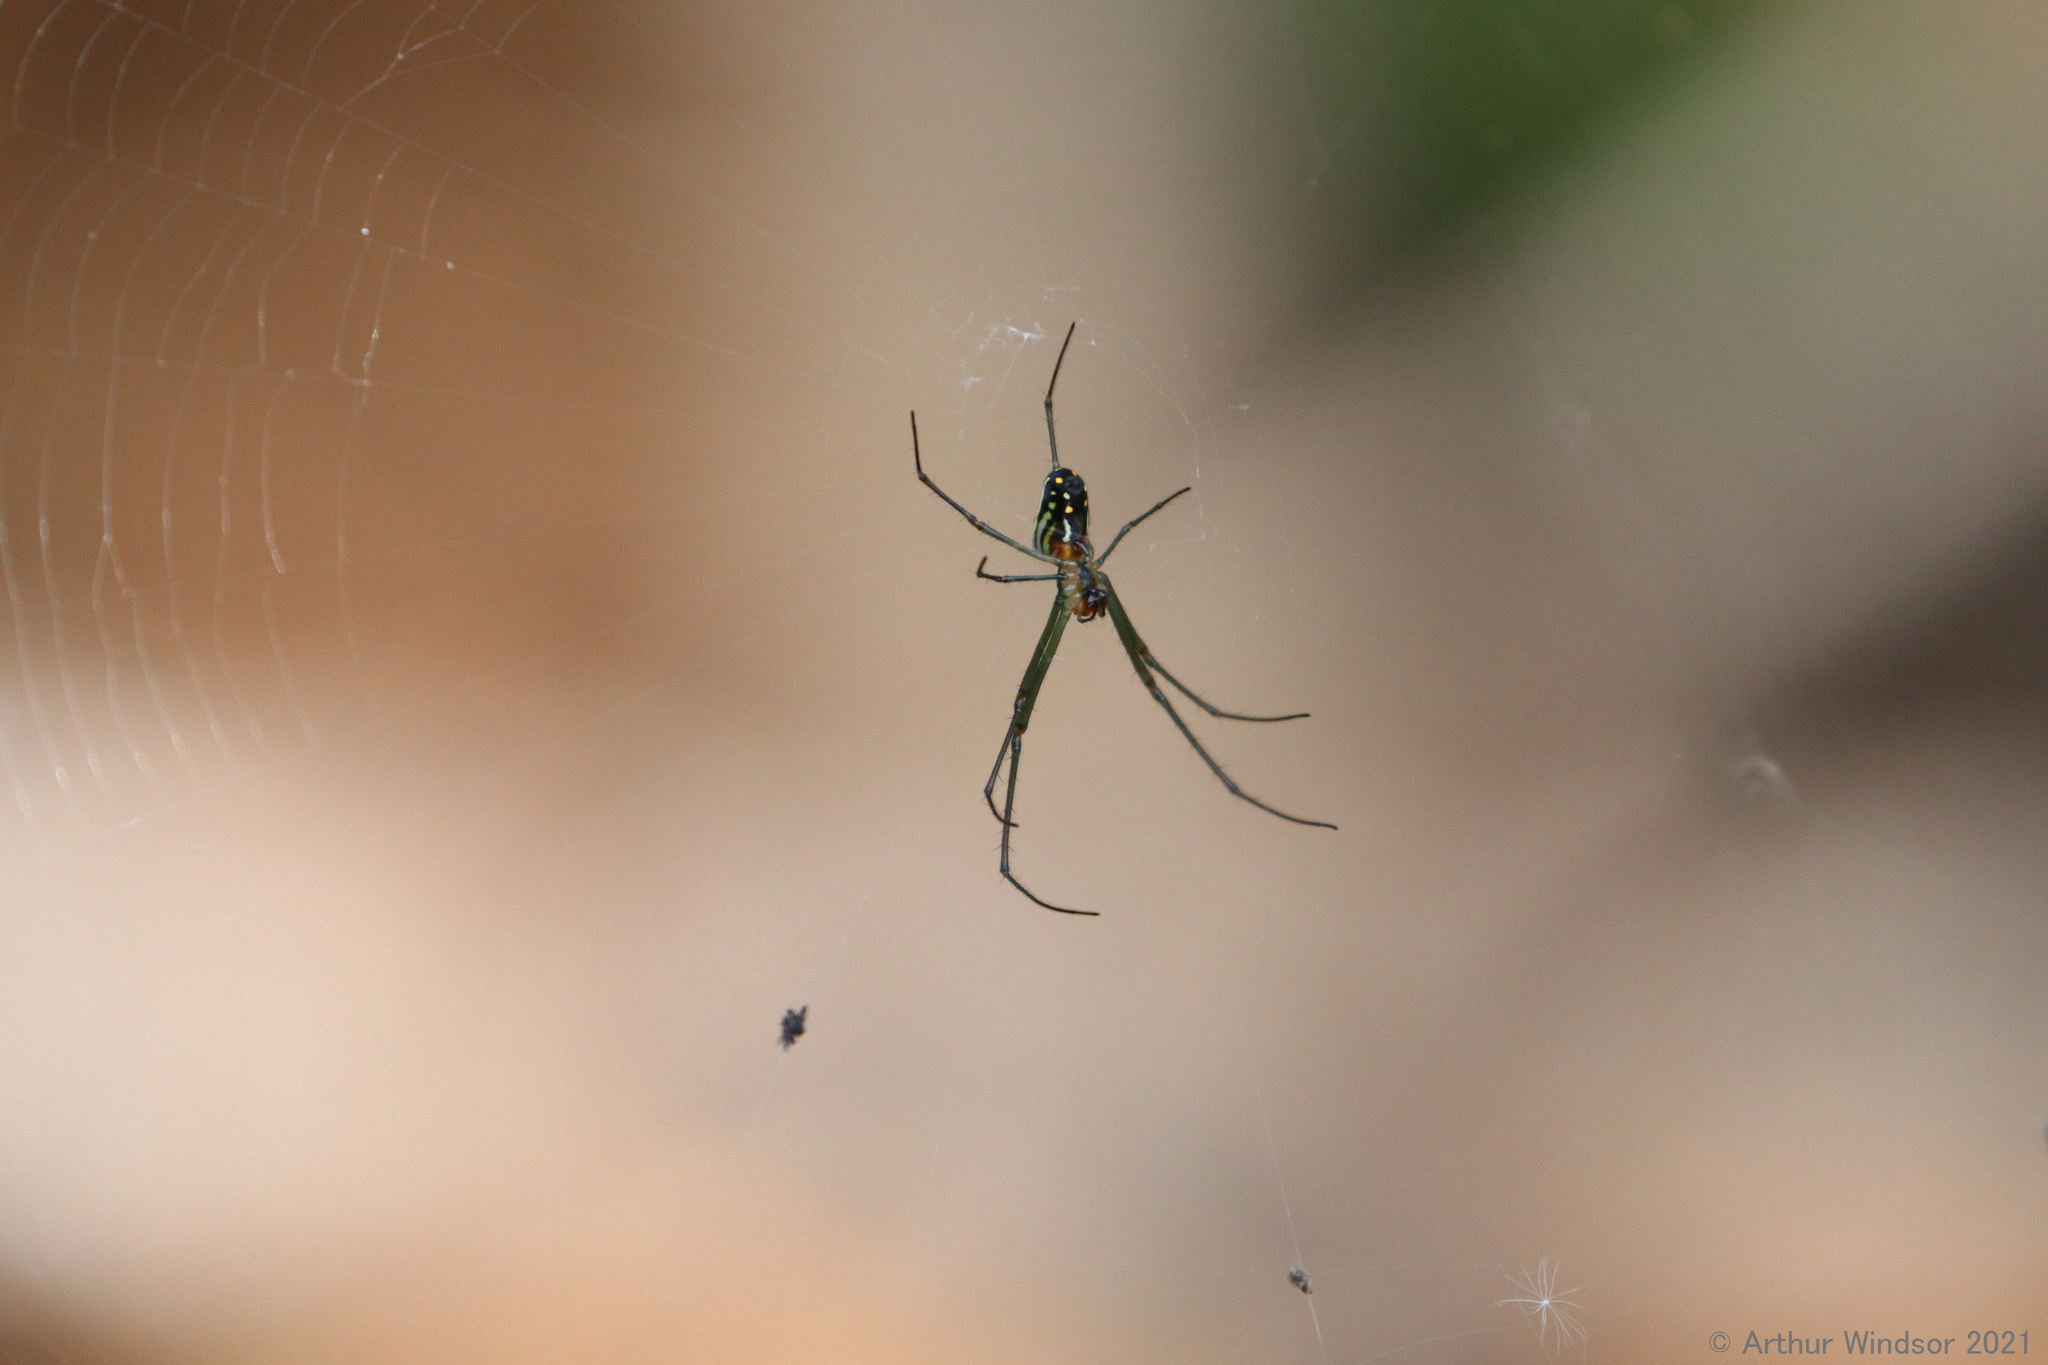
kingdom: Animalia
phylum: Arthropoda
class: Arachnida
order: Araneae
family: Tetragnathidae
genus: Leucauge
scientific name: Leucauge argyra
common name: Longjawed orb weavers
